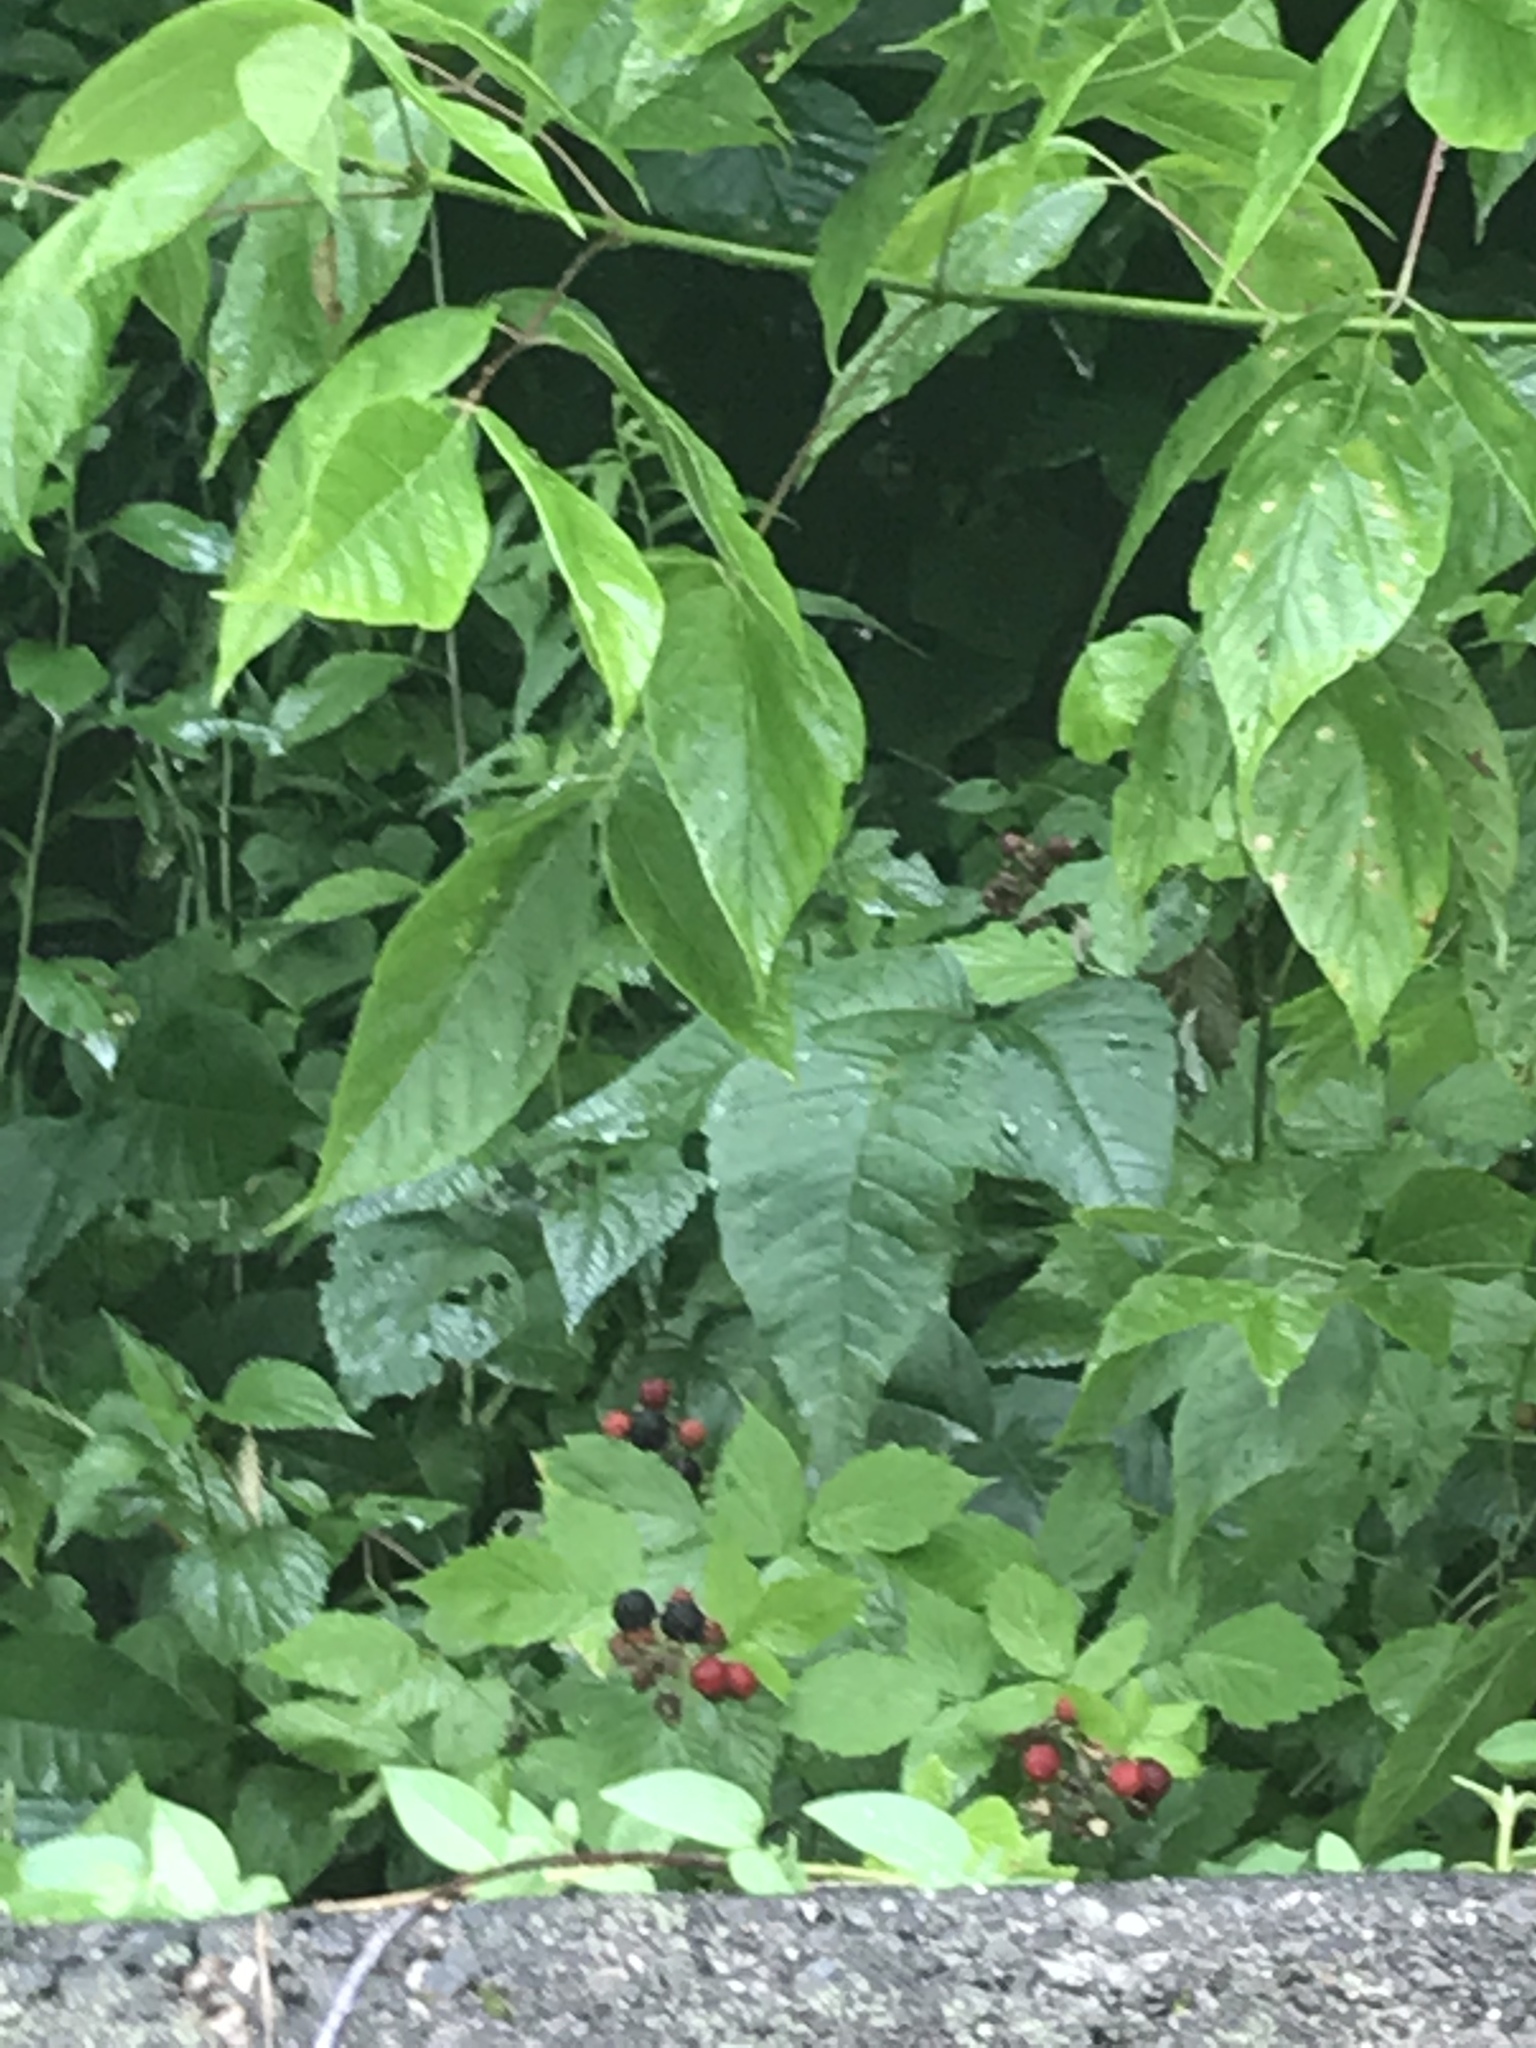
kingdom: Plantae
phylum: Tracheophyta
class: Magnoliopsida
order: Rosales
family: Rosaceae
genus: Rubus
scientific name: Rubus occidentalis
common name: Black raspberry
